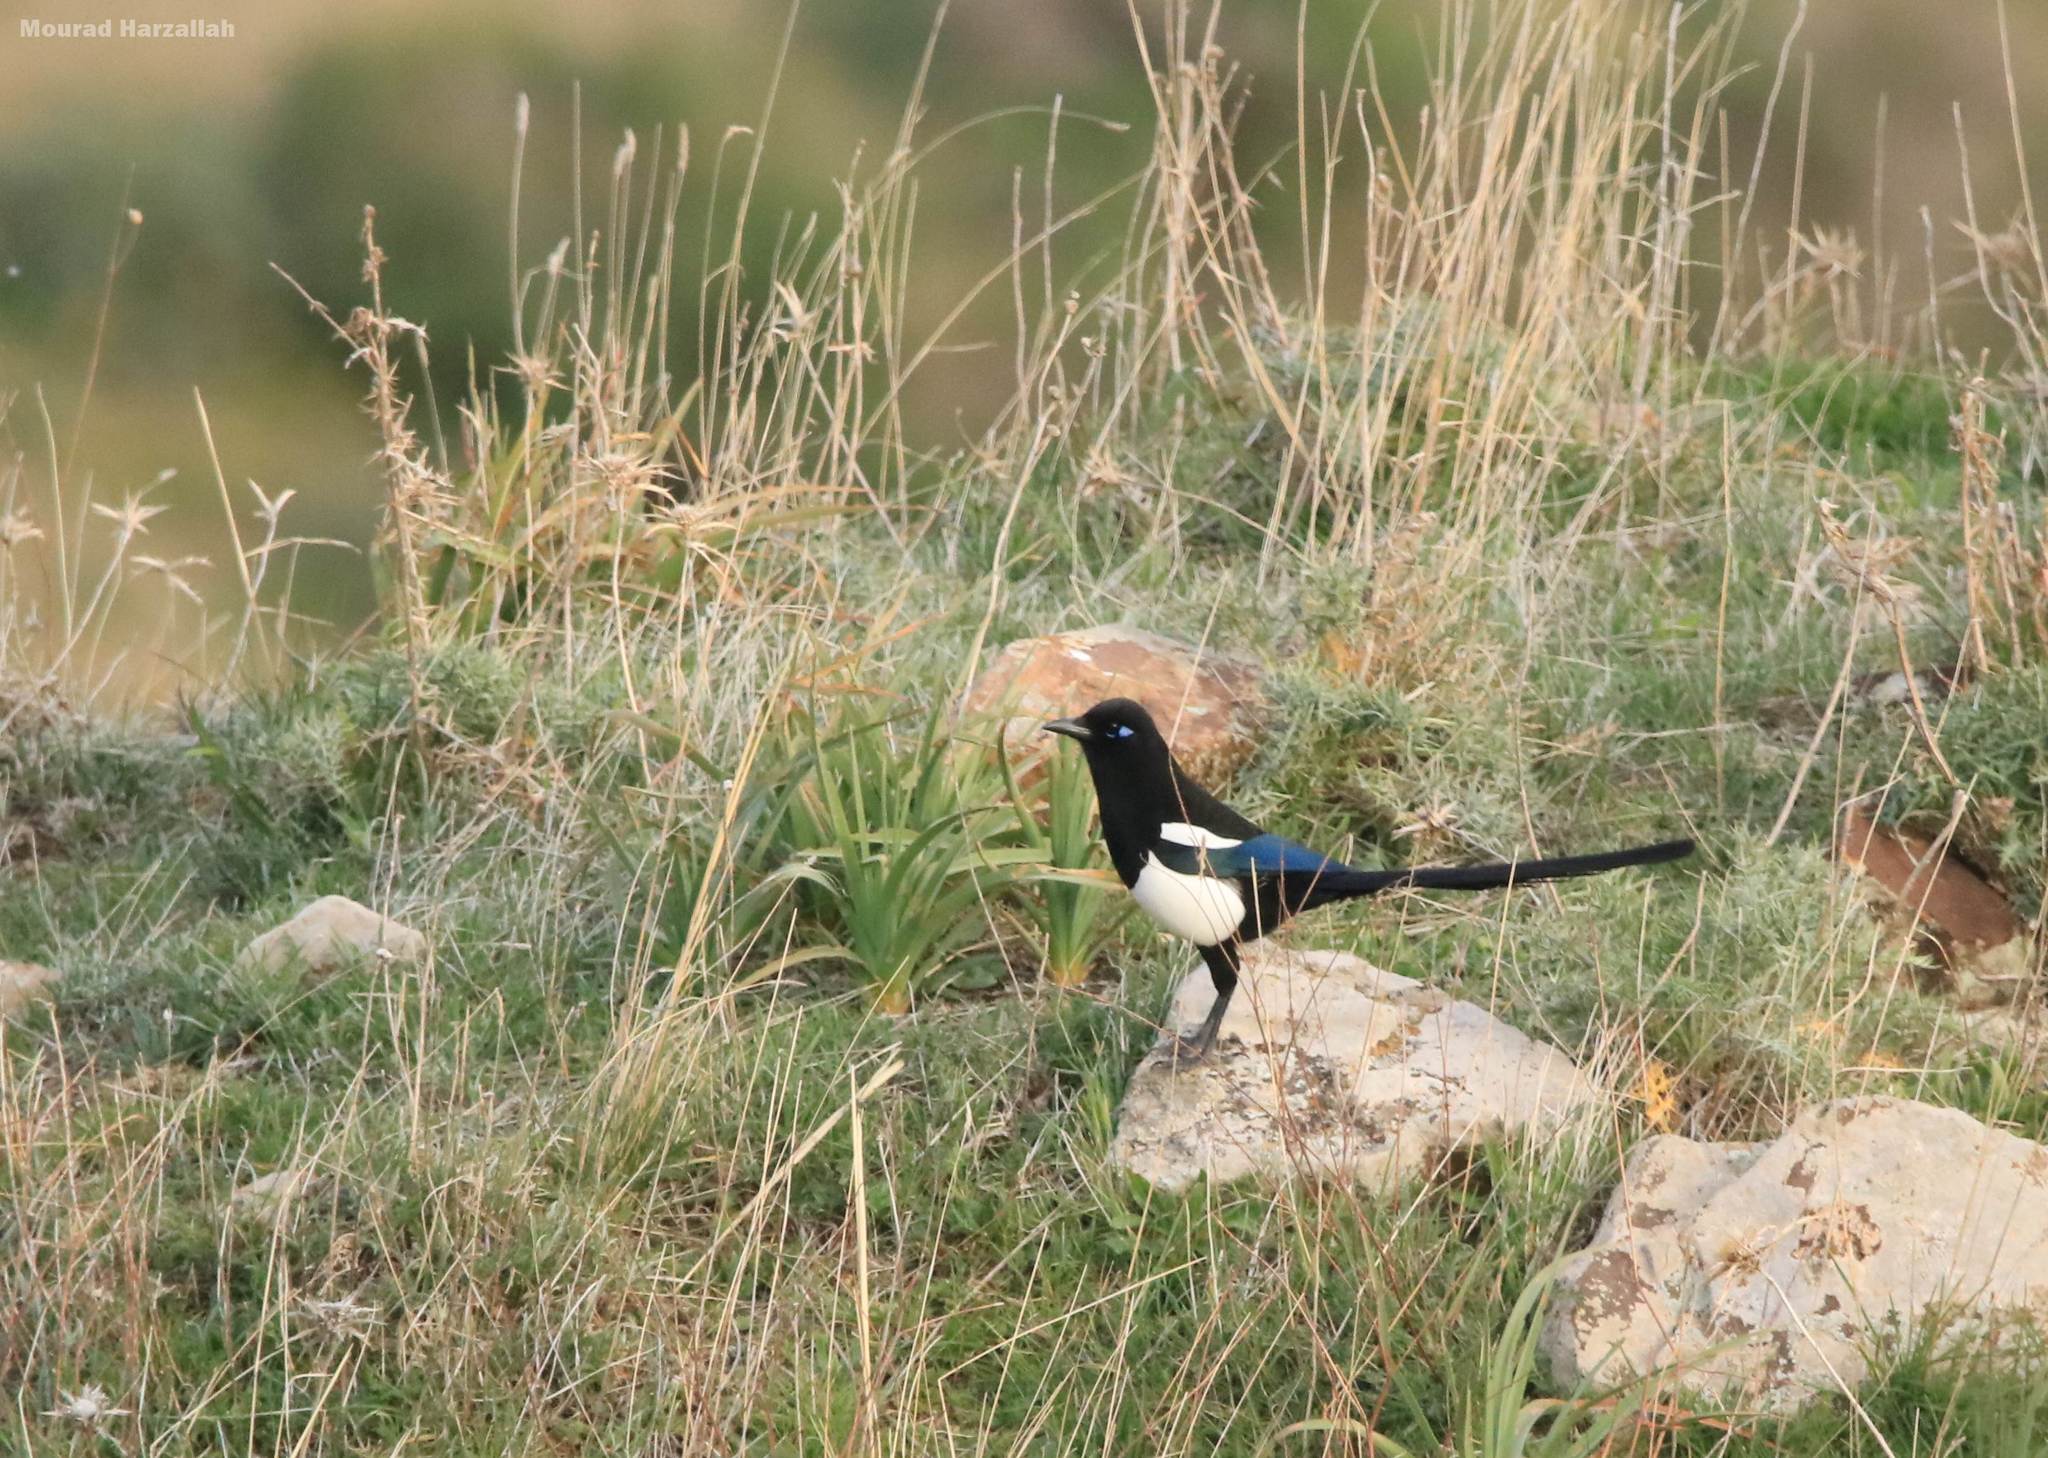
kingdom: Animalia
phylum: Chordata
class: Aves
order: Passeriformes
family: Corvidae
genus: Pica
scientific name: Pica mauritanica
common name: Maghreb magpie
